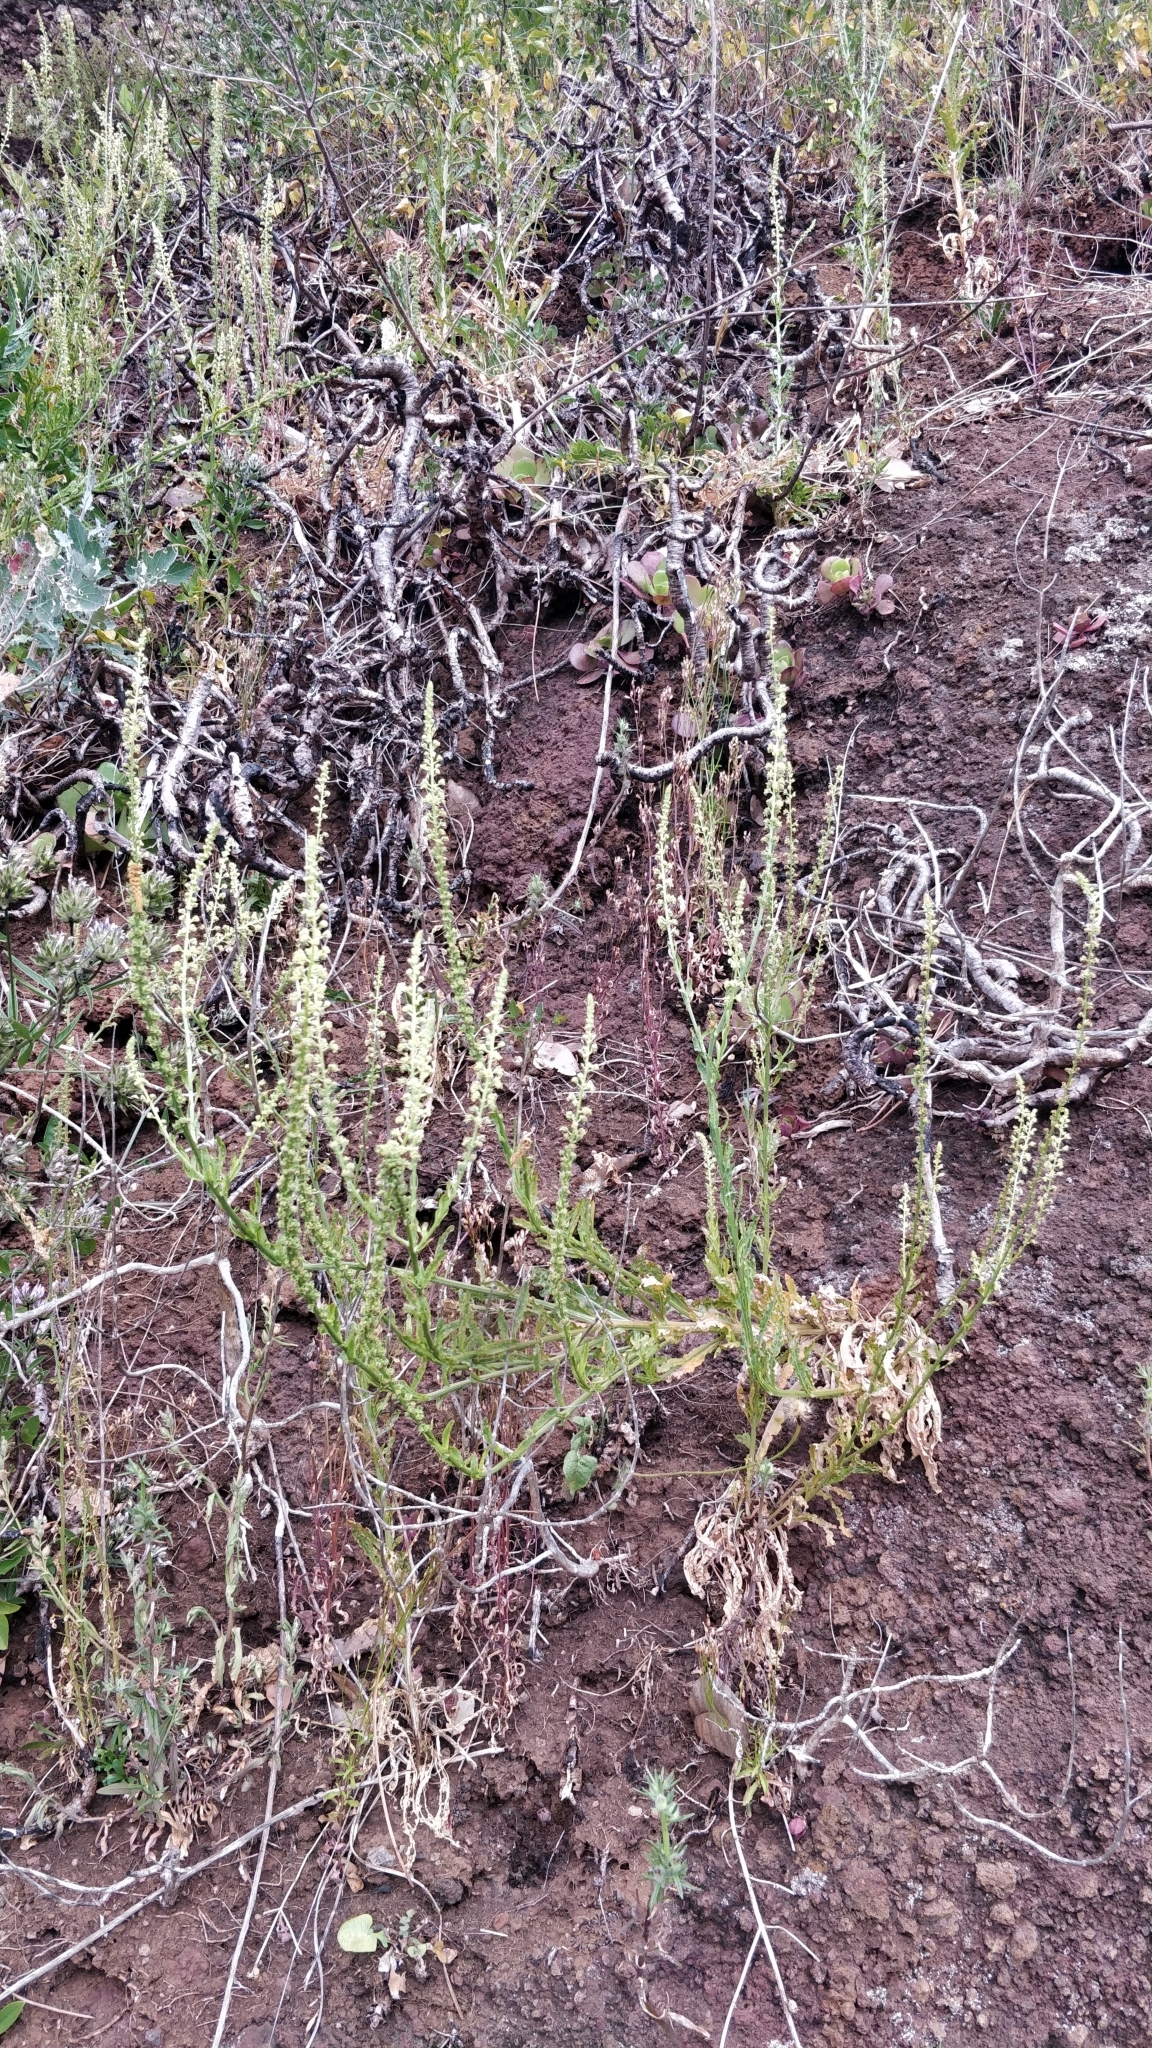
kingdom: Plantae
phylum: Tracheophyta
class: Magnoliopsida
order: Brassicales
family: Resedaceae
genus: Reseda
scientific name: Reseda luteola
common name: Weld
